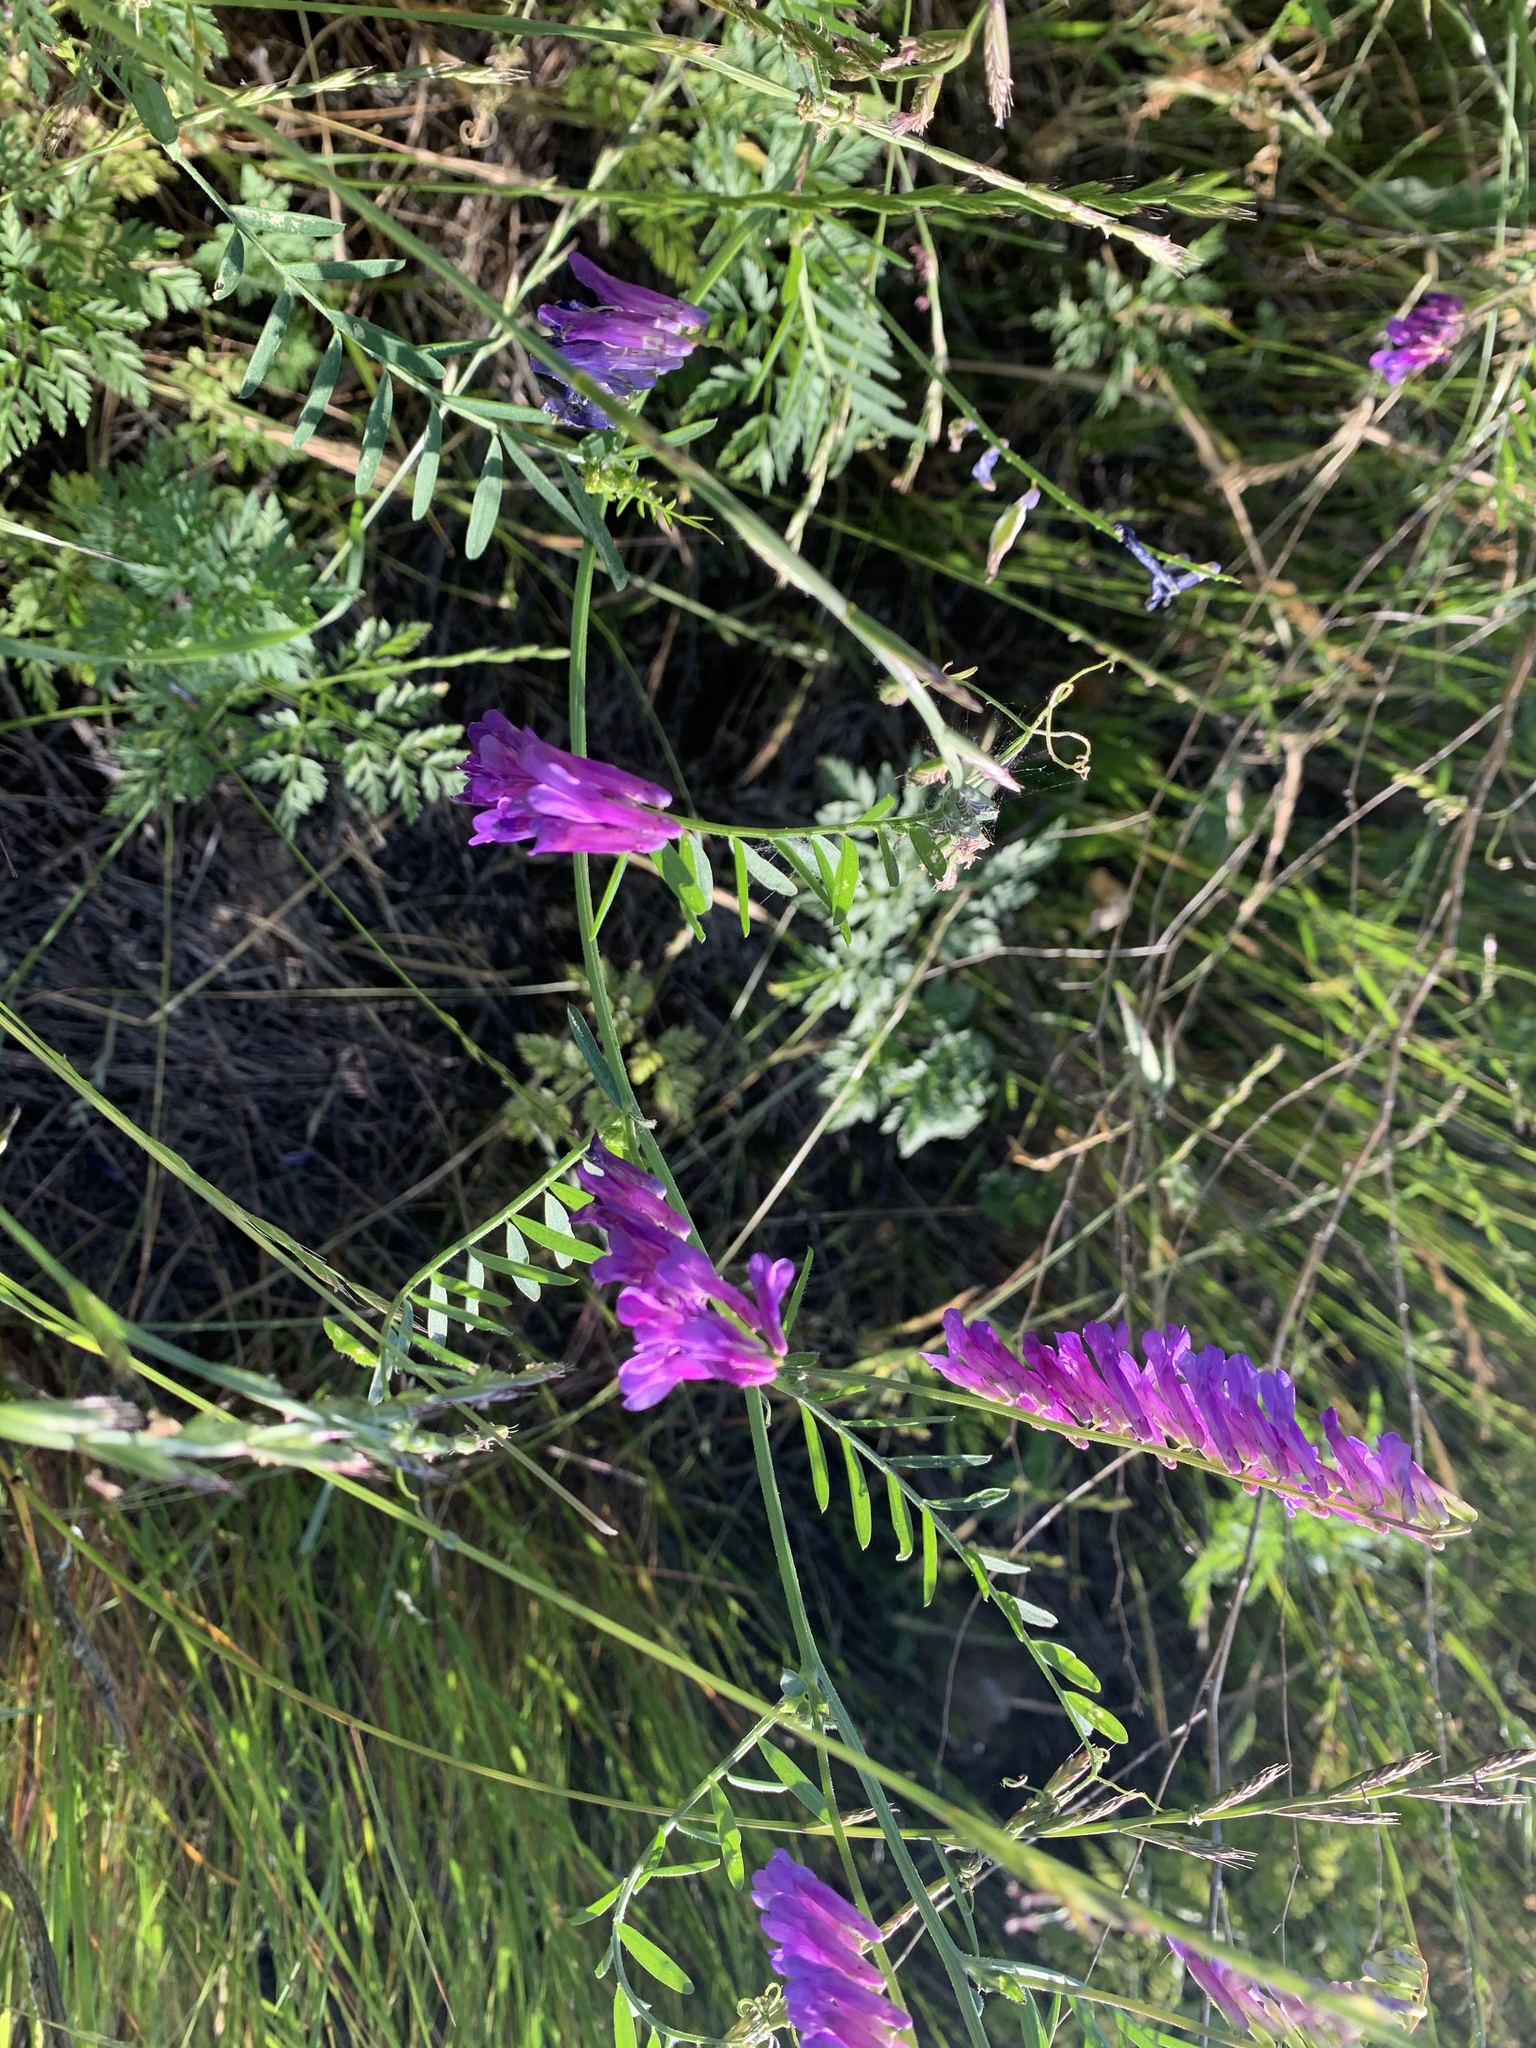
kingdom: Plantae
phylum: Tracheophyta
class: Magnoliopsida
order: Fabales
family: Fabaceae
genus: Vicia
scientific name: Vicia villosa
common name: Fodder vetch
